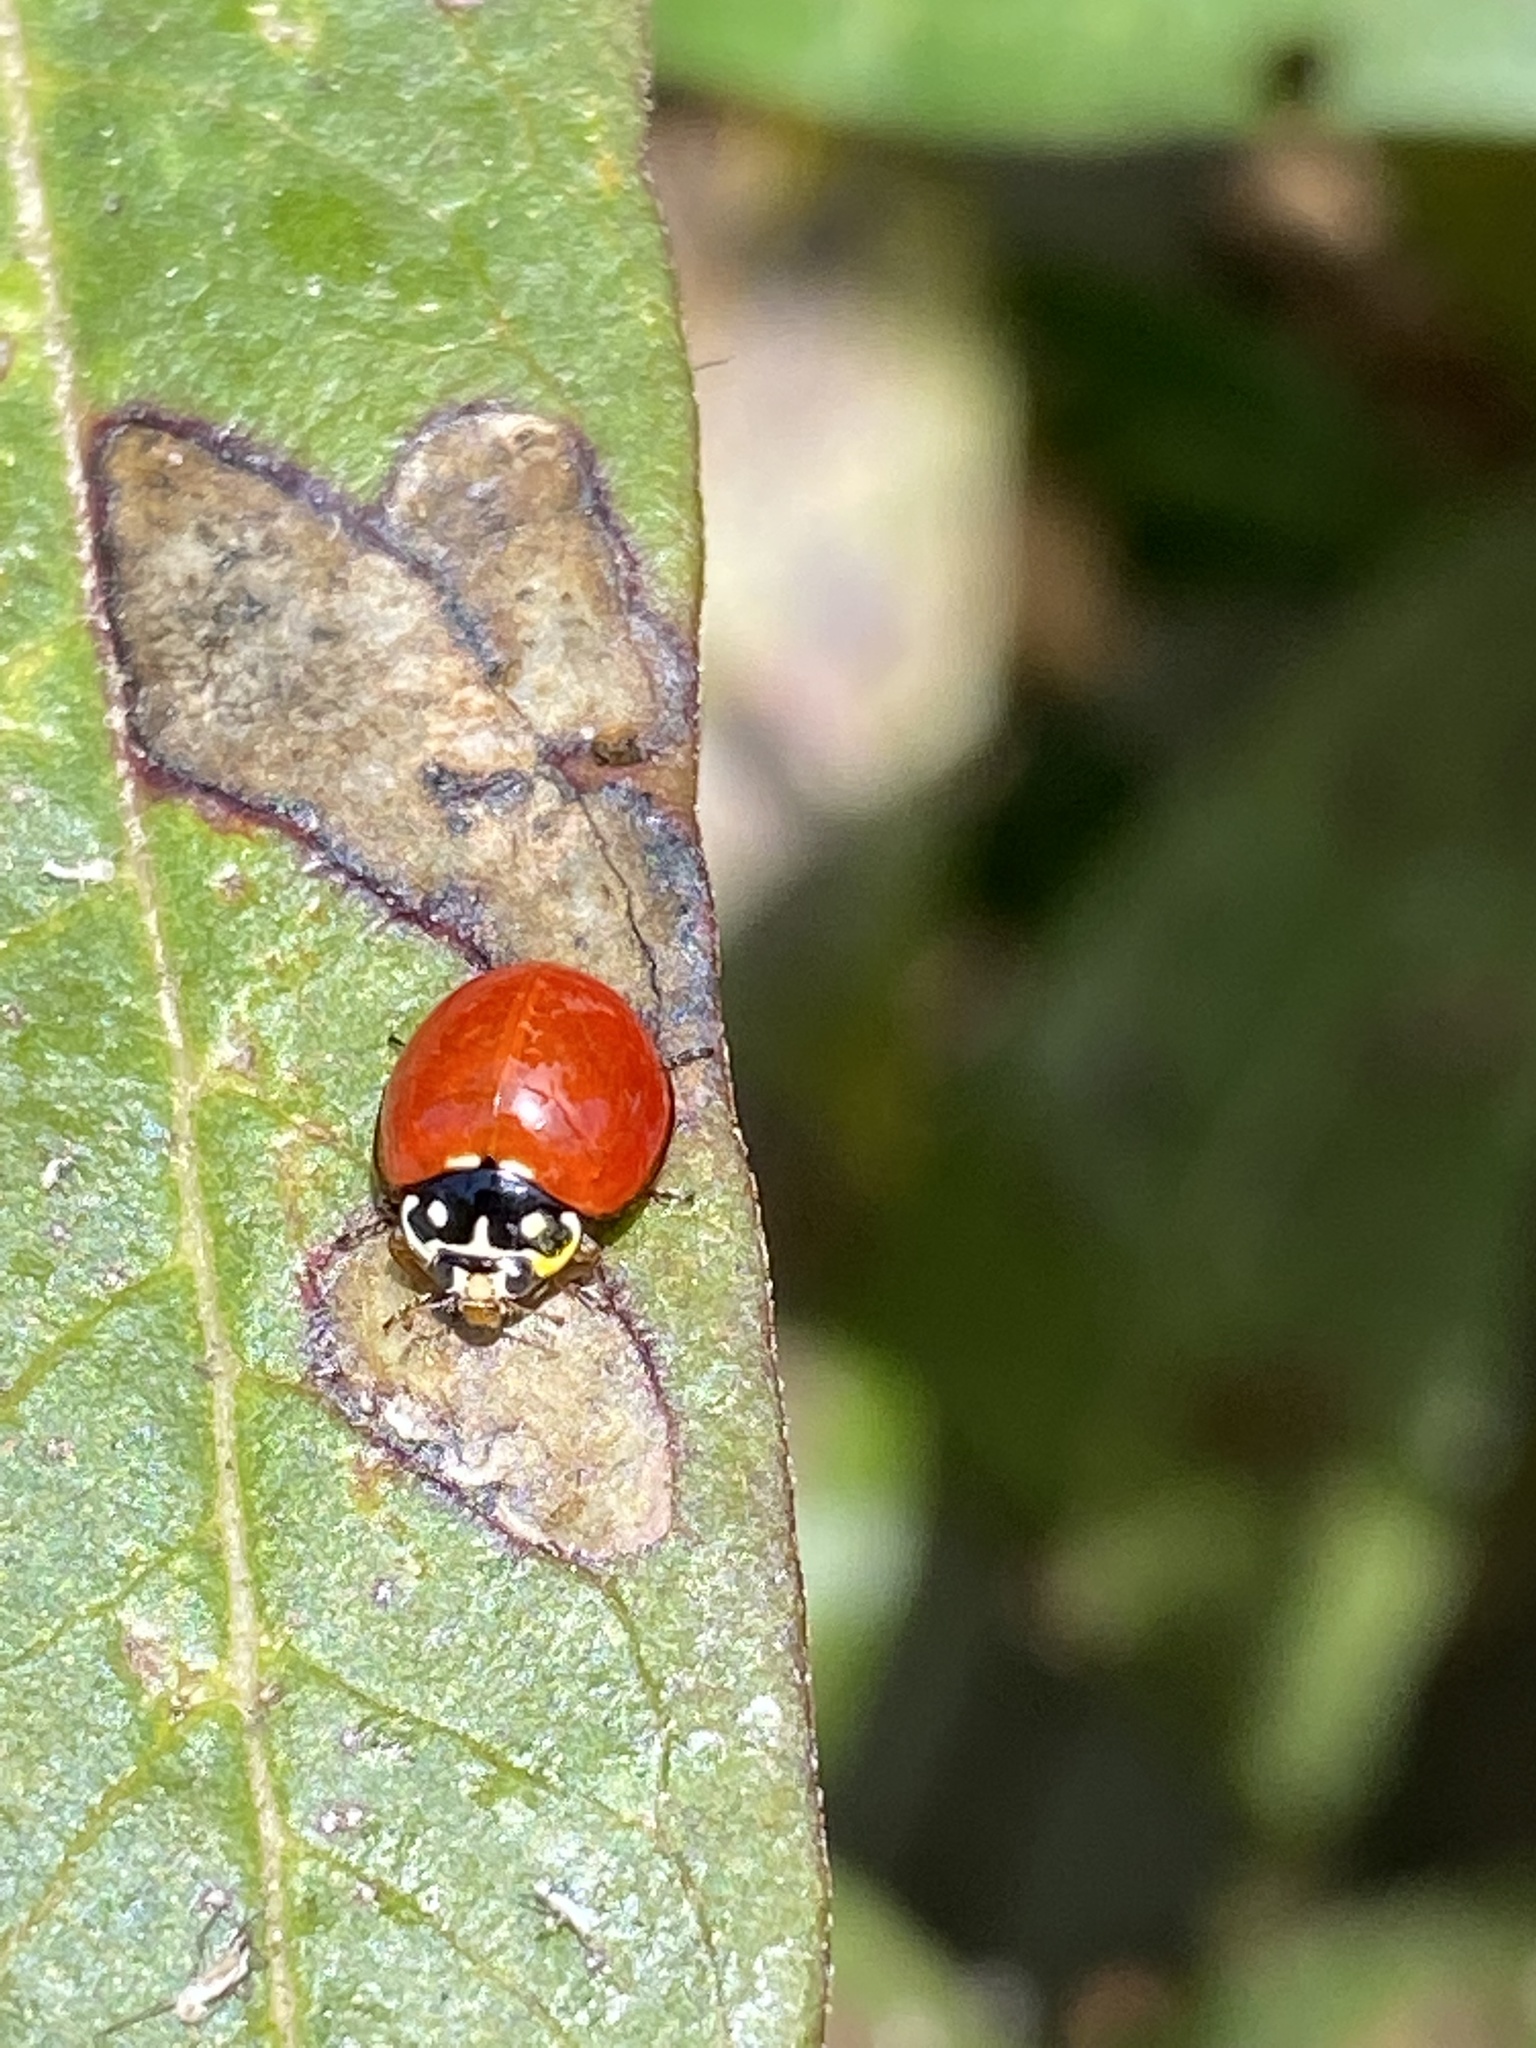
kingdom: Animalia
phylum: Arthropoda
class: Insecta
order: Coleoptera
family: Coccinellidae
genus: Cycloneda
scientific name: Cycloneda sanguinea
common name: Ladybird beetle
